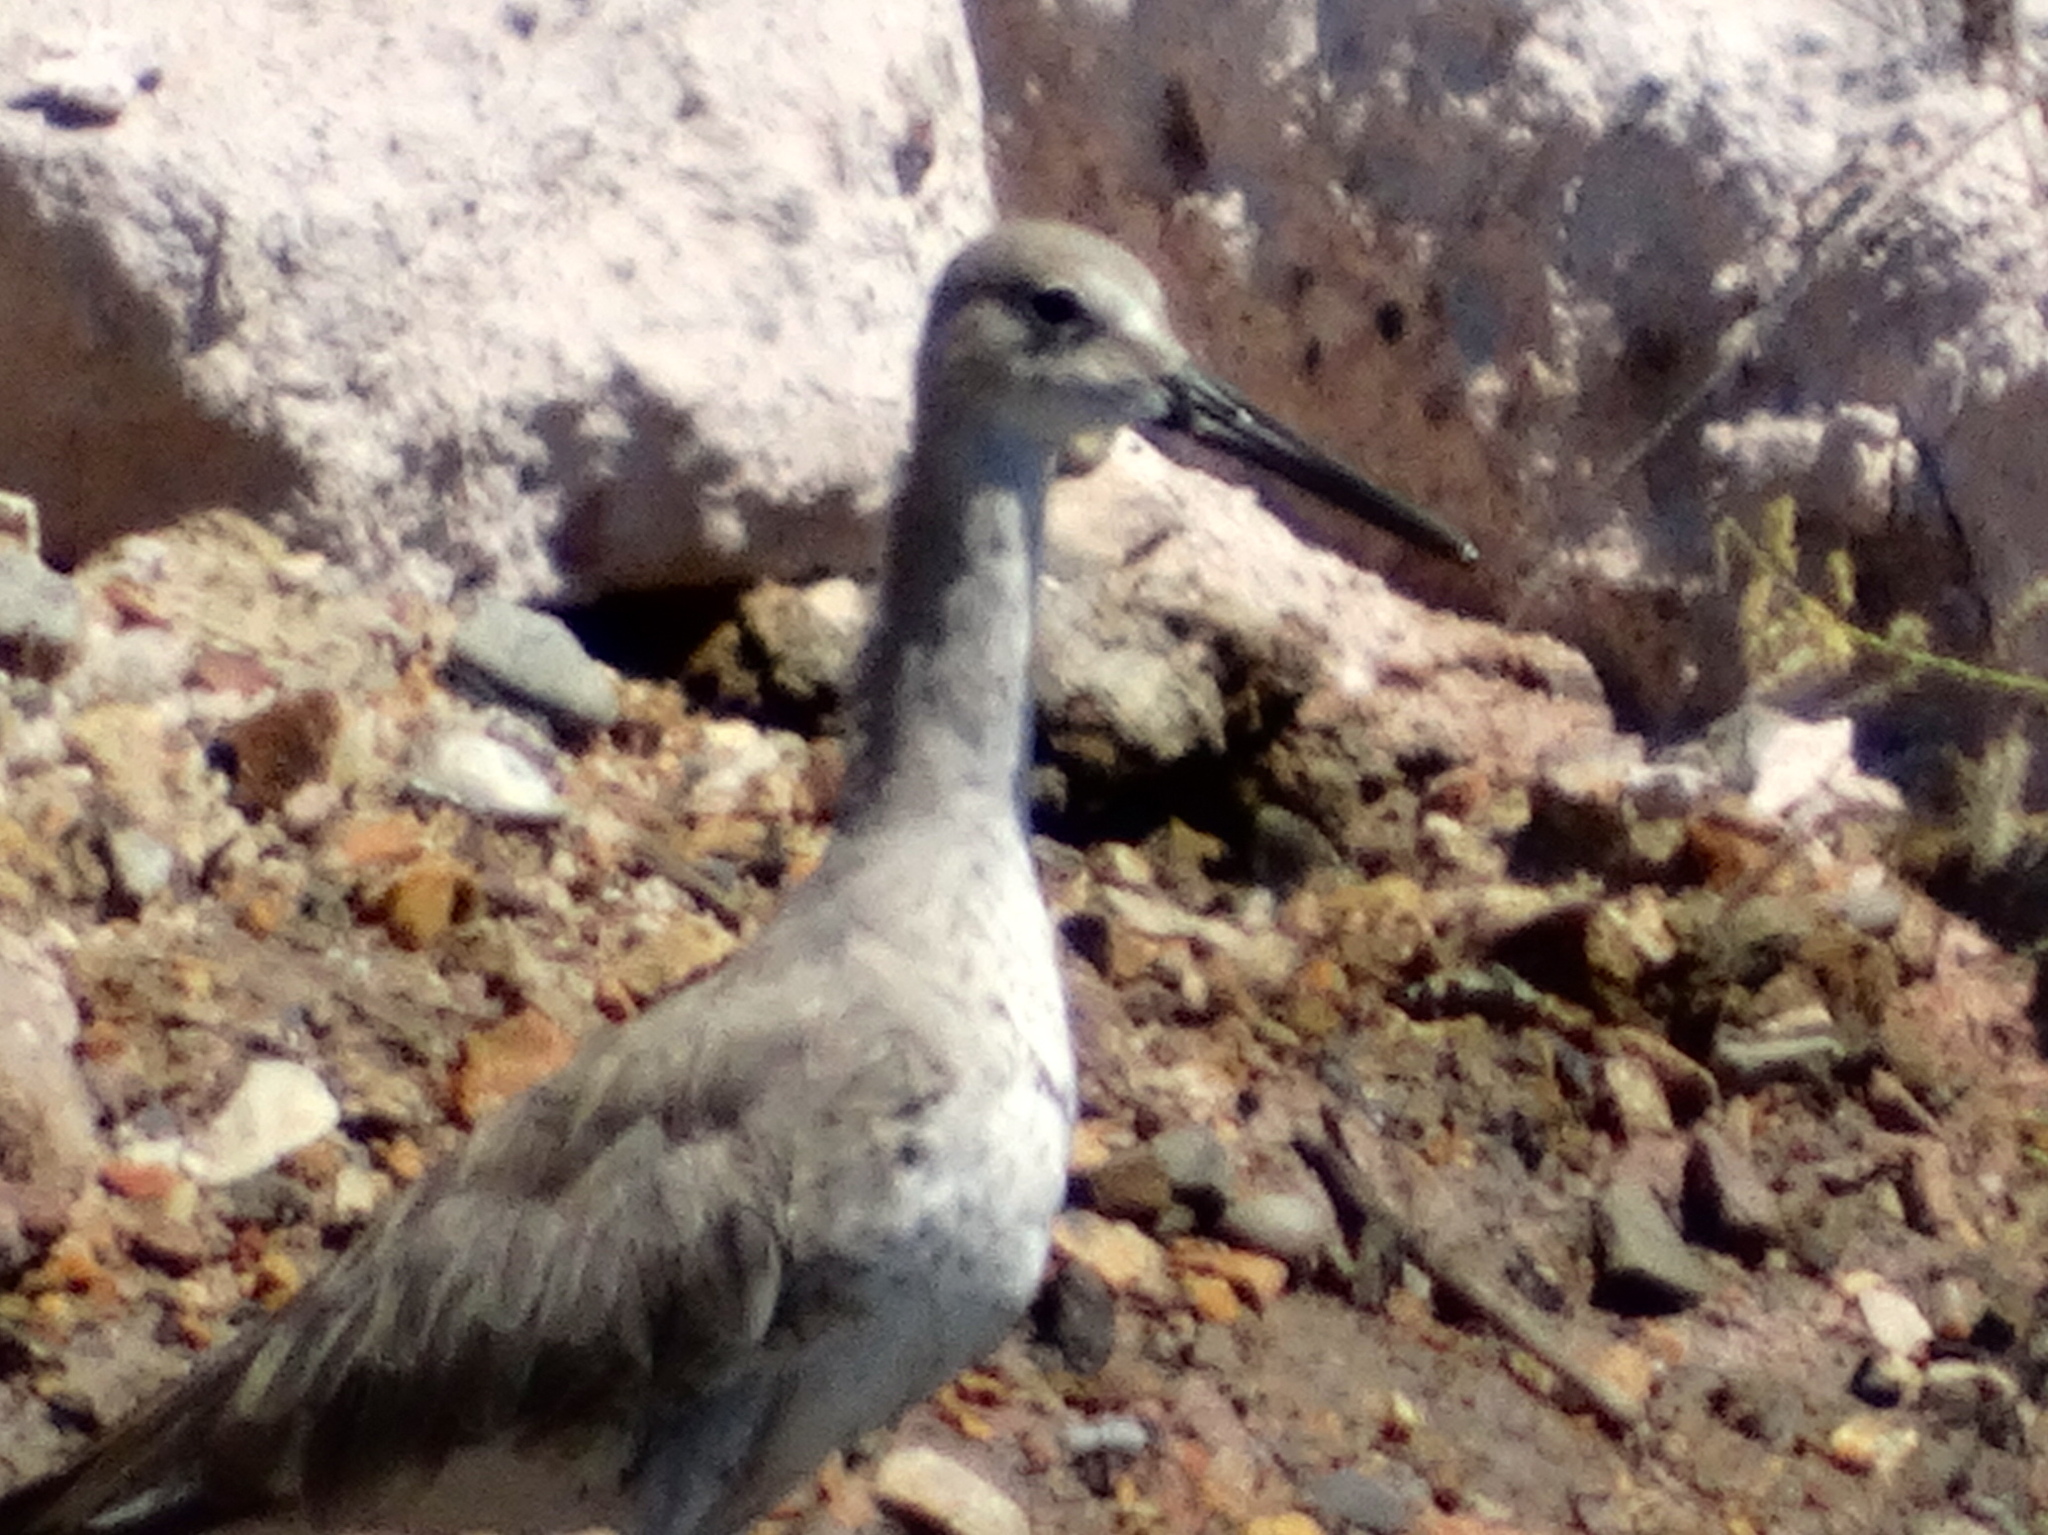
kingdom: Animalia
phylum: Chordata
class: Aves
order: Charadriiformes
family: Scolopacidae
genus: Tringa
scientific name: Tringa semipalmata
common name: Willet
